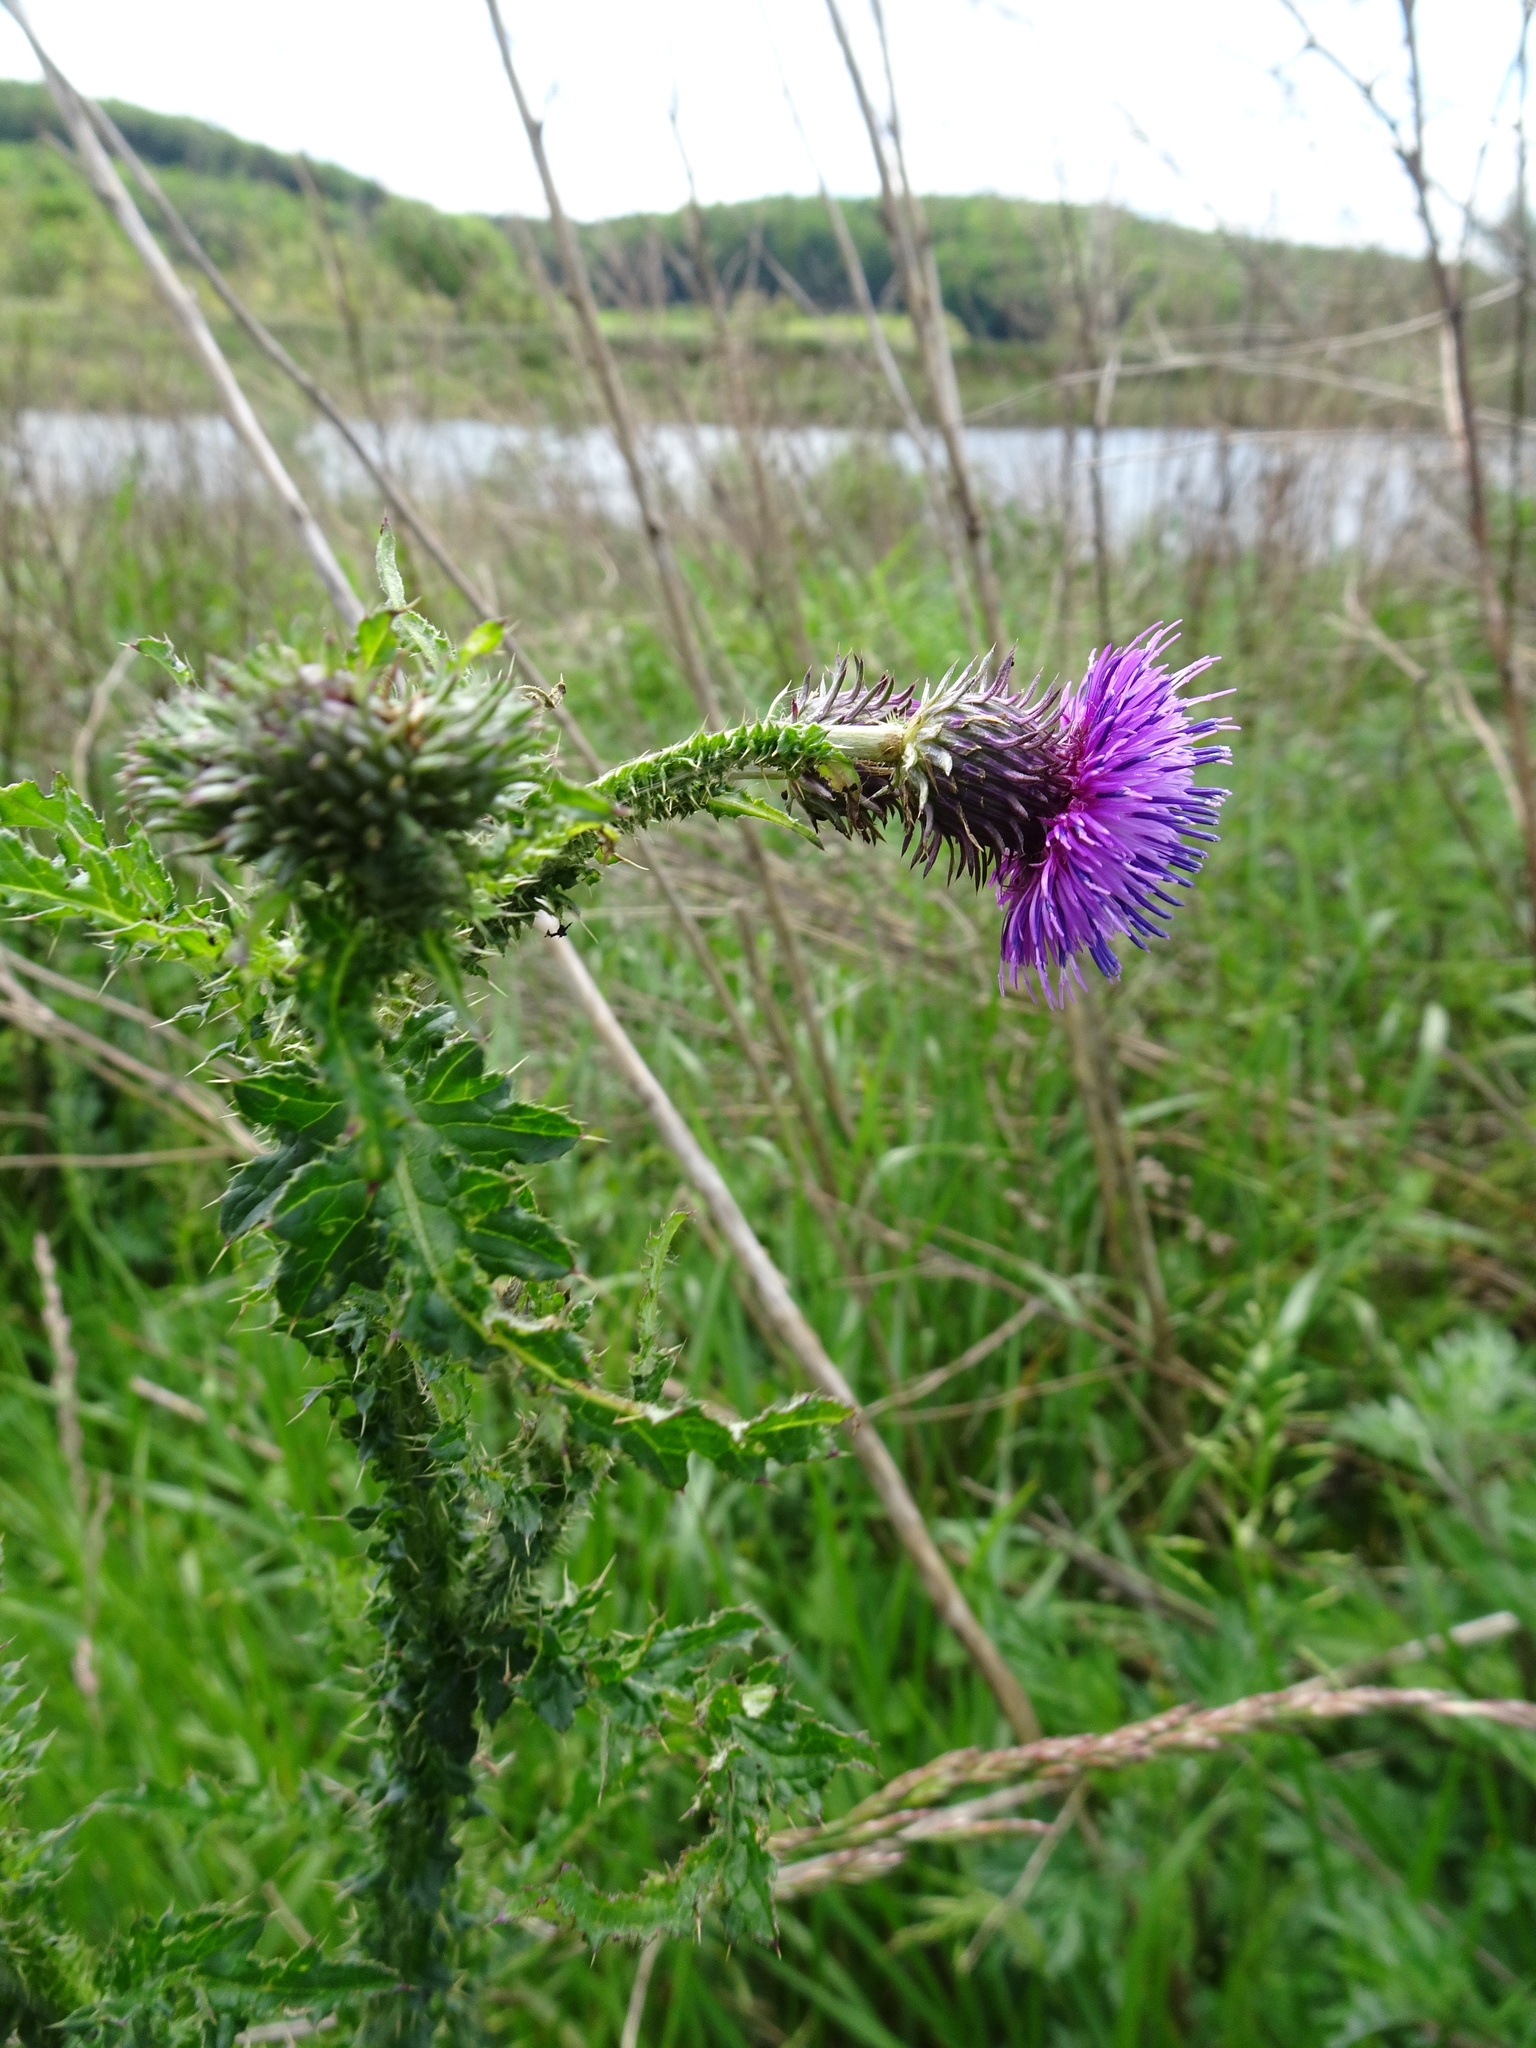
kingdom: Plantae
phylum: Tracheophyta
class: Magnoliopsida
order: Asterales
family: Asteraceae
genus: Carduus
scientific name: Carduus crispus
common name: Welted thistle
